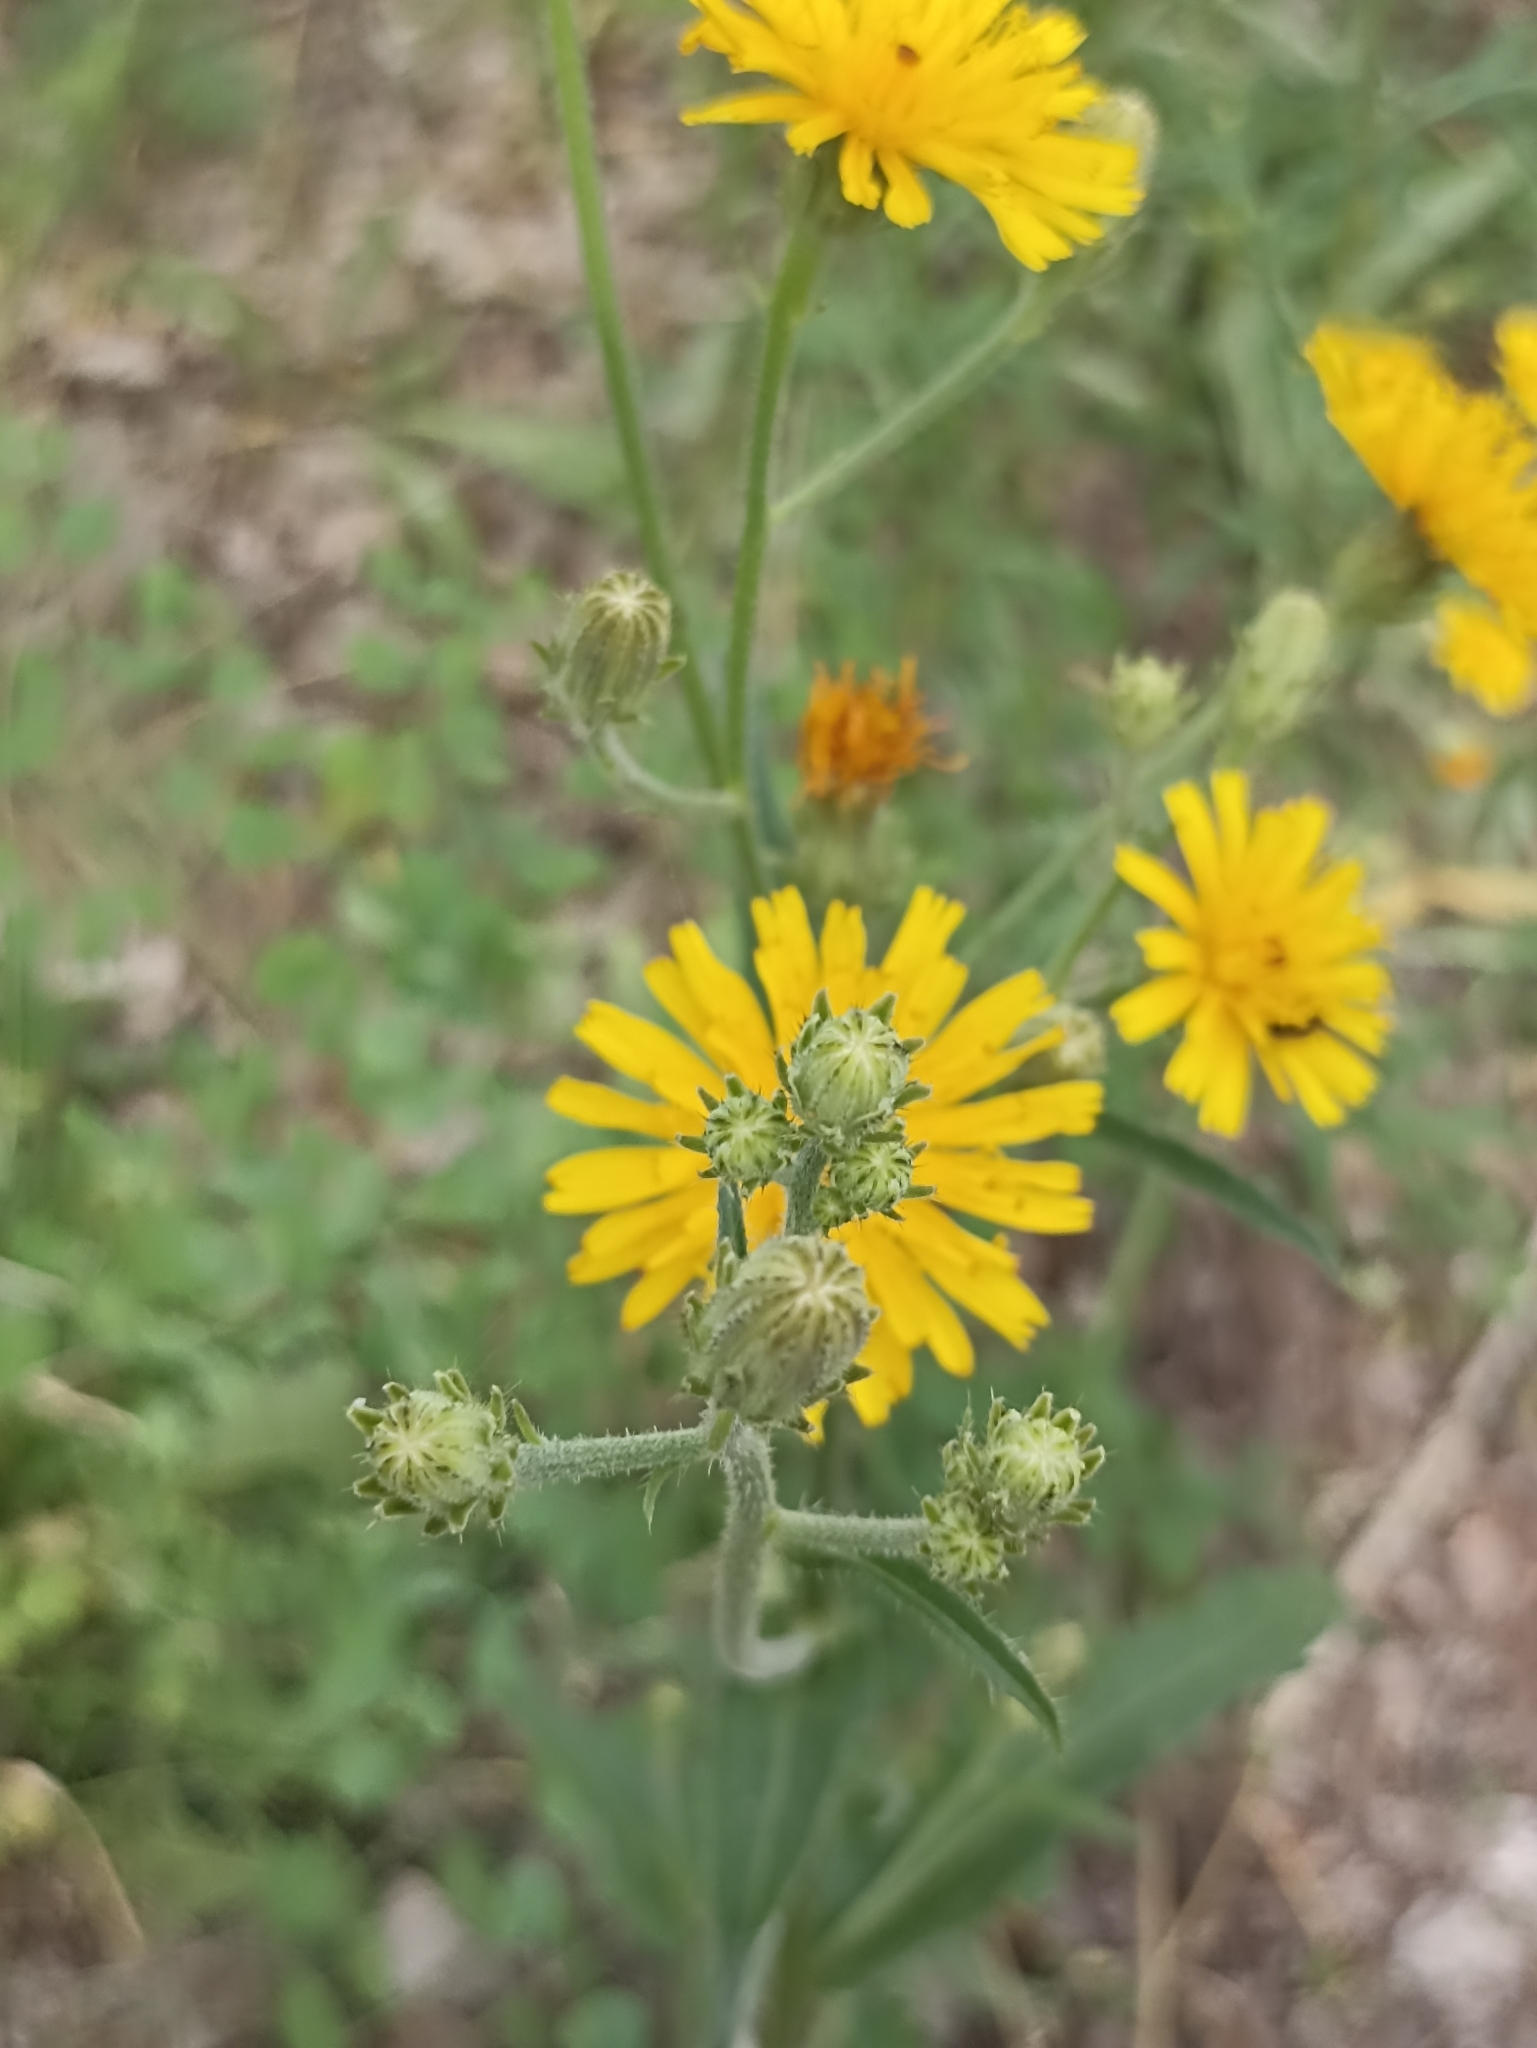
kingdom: Plantae
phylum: Tracheophyta
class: Magnoliopsida
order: Asterales
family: Asteraceae
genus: Picris
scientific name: Picris hieracioides
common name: Hawkweed oxtongue
